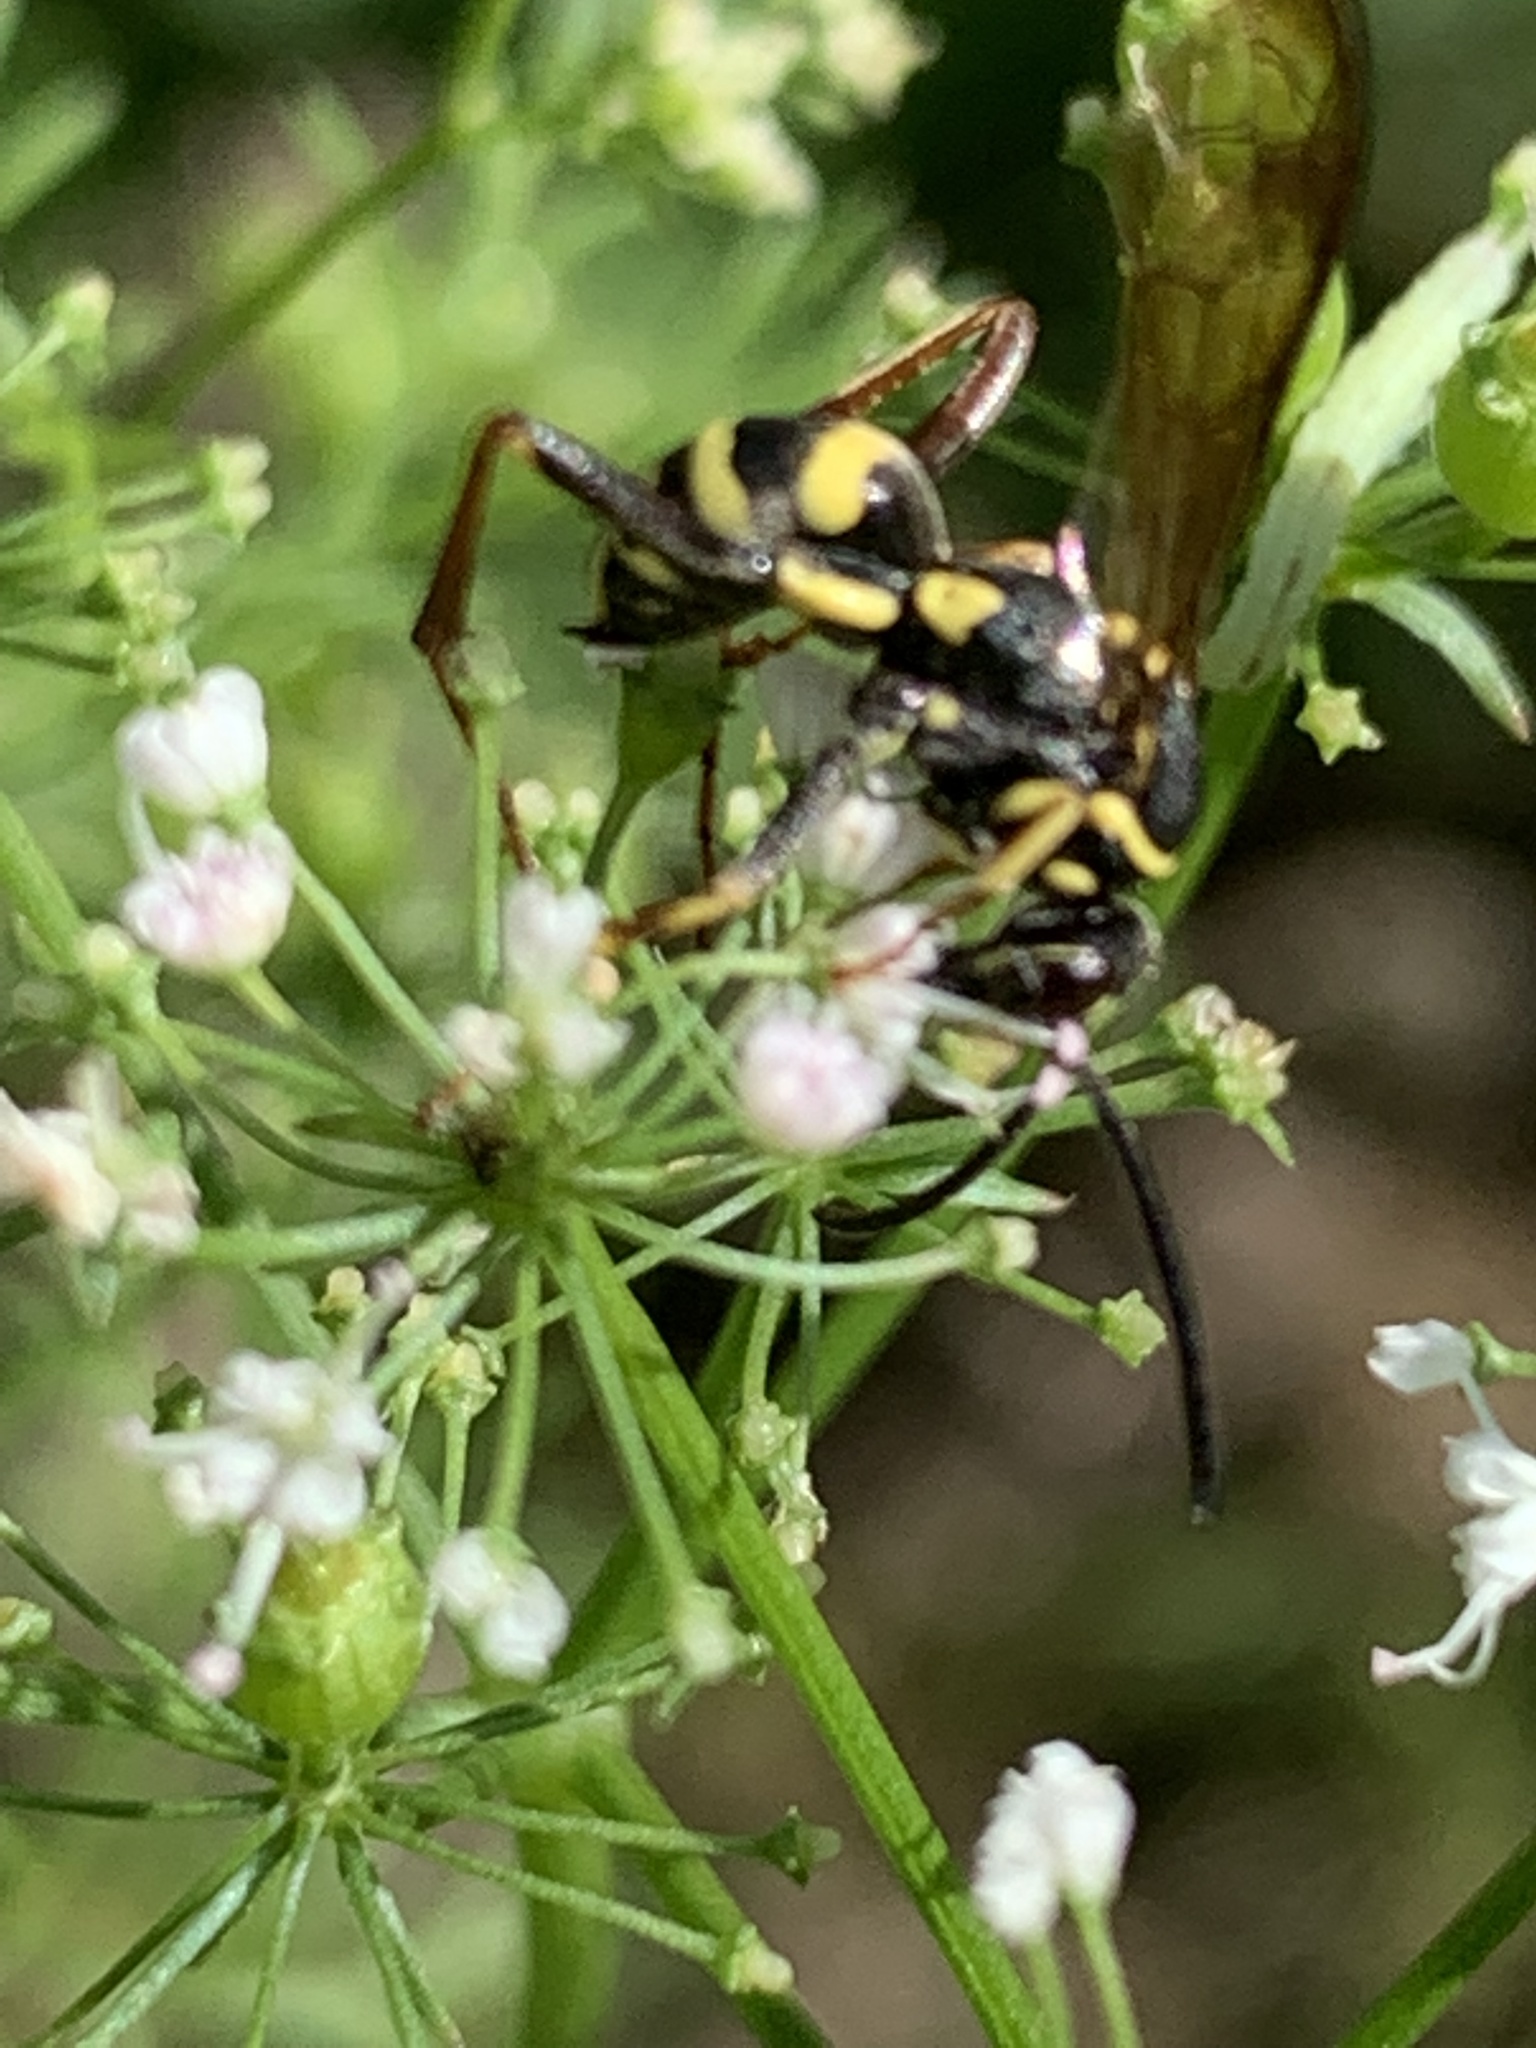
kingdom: Animalia
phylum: Arthropoda
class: Insecta
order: Hymenoptera
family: Pompilidae
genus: Ceropales
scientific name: Ceropales maculata
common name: Spider wasp
